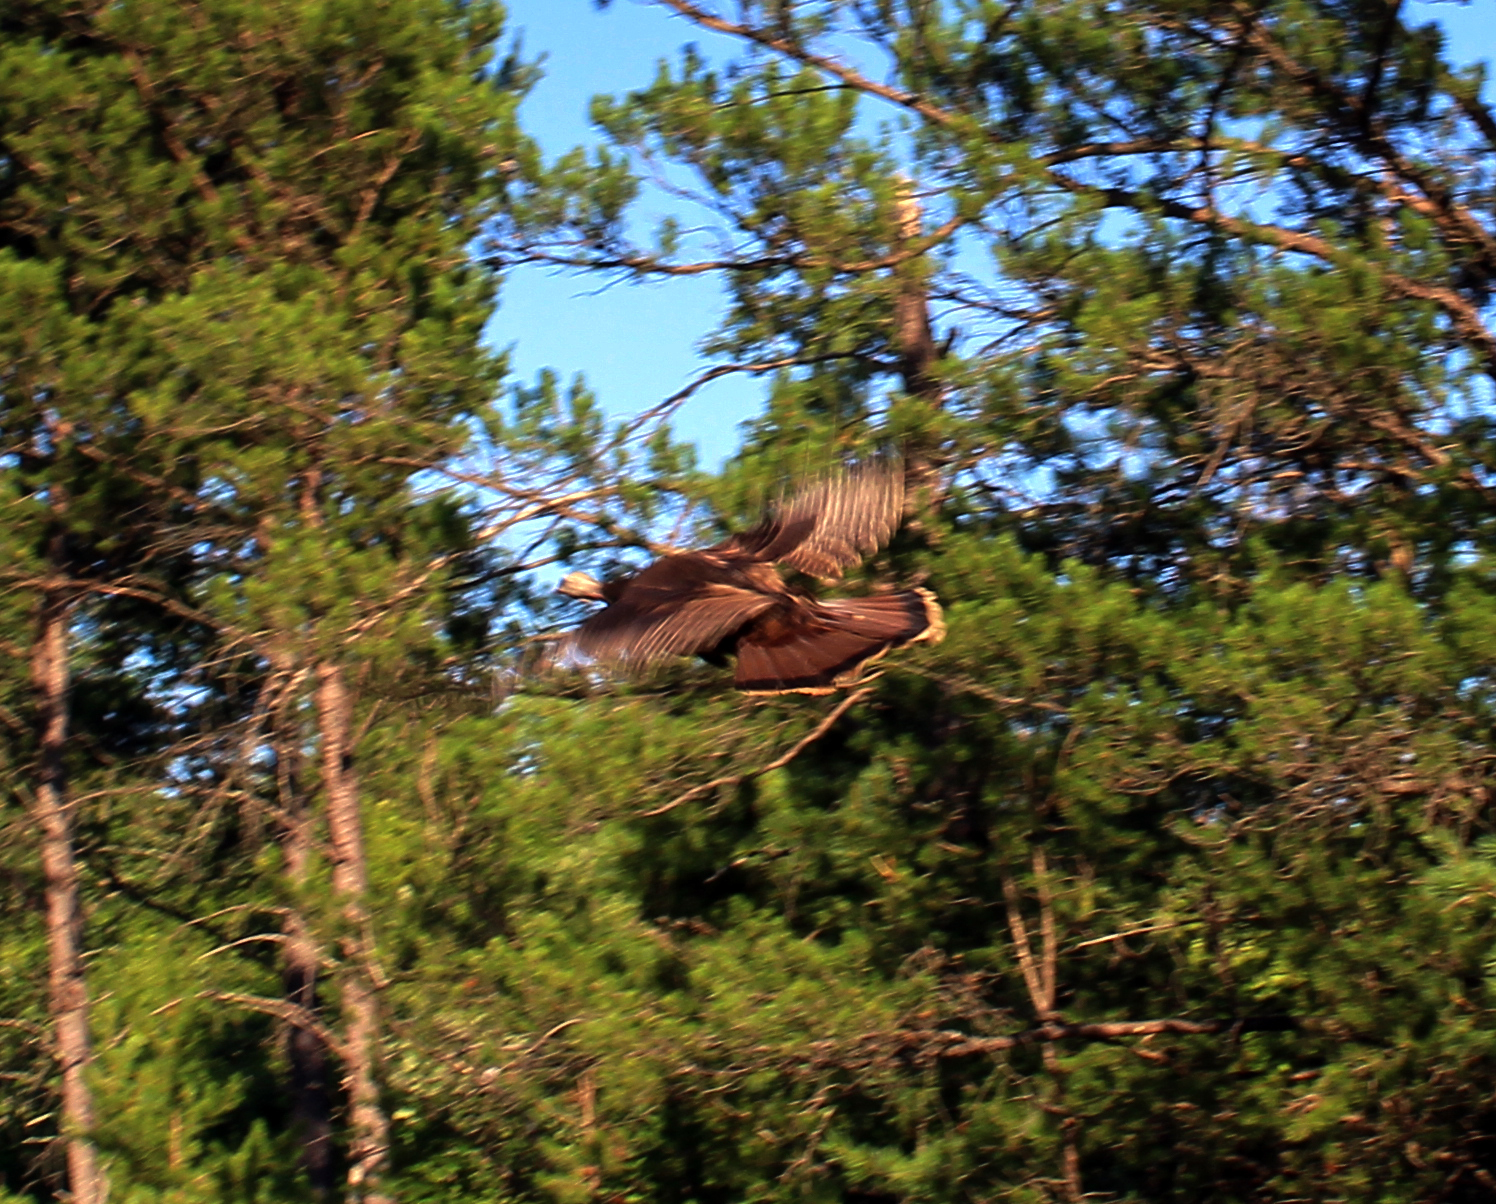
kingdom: Animalia
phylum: Chordata
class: Aves
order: Galliformes
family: Phasianidae
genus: Meleagris
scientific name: Meleagris gallopavo
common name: Wild turkey
